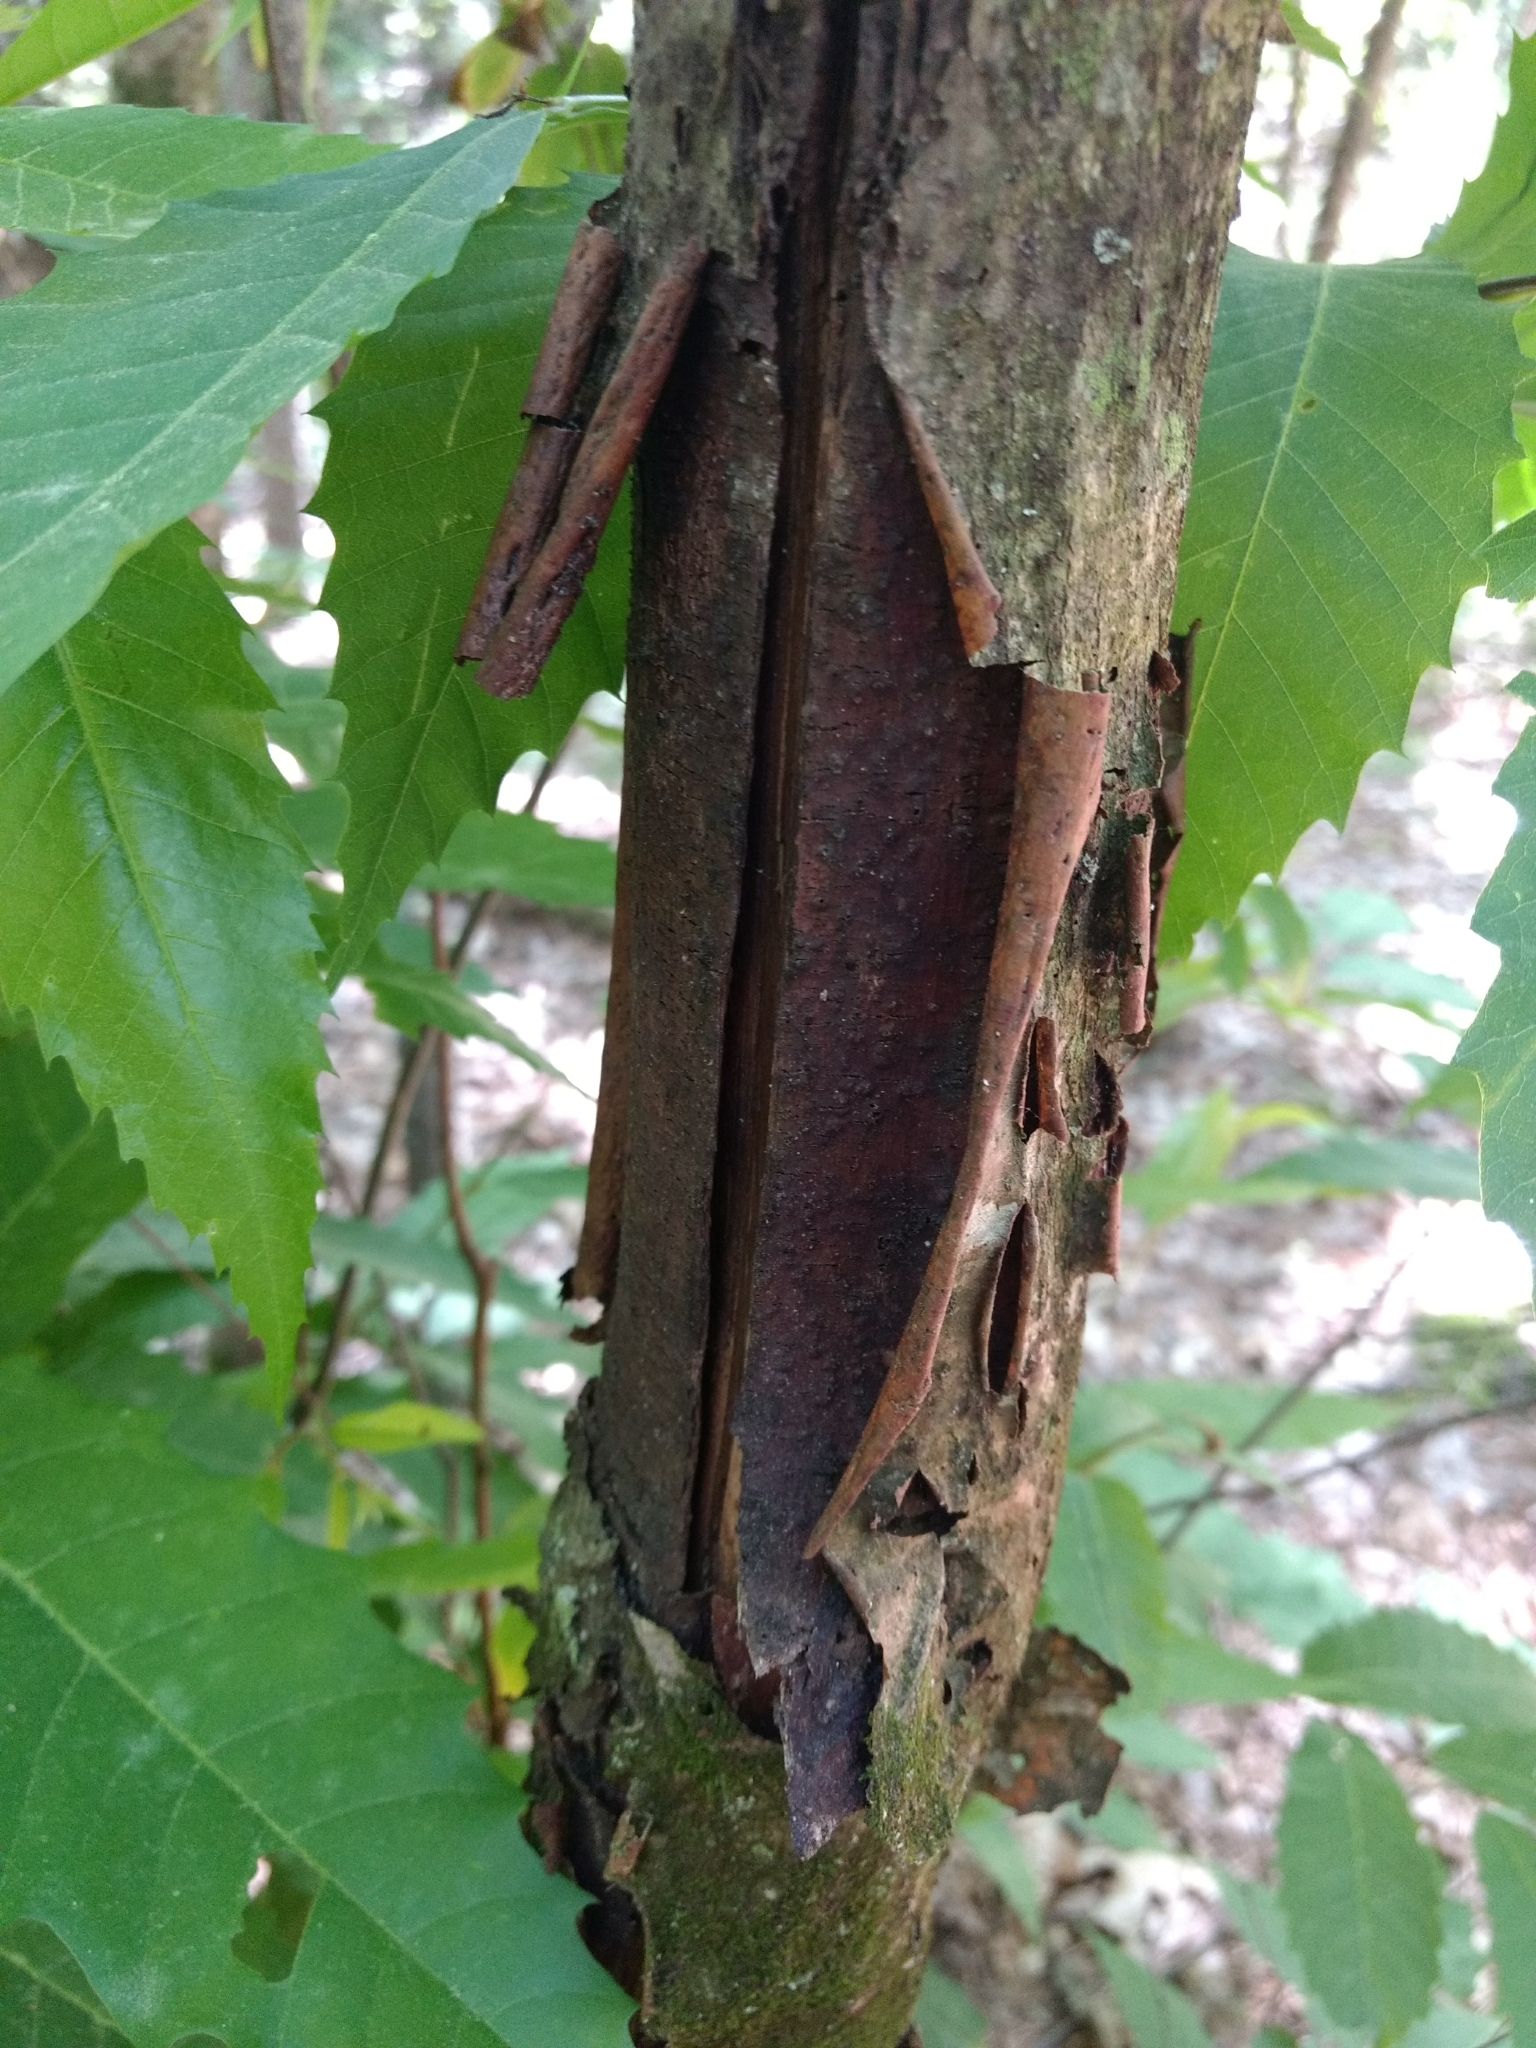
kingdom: Fungi
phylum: Ascomycota
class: Sordariomycetes
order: Diaporthales
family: Cryphonectriaceae
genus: Cryphonectria
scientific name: Cryphonectria parasitica
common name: Chestnut blight
